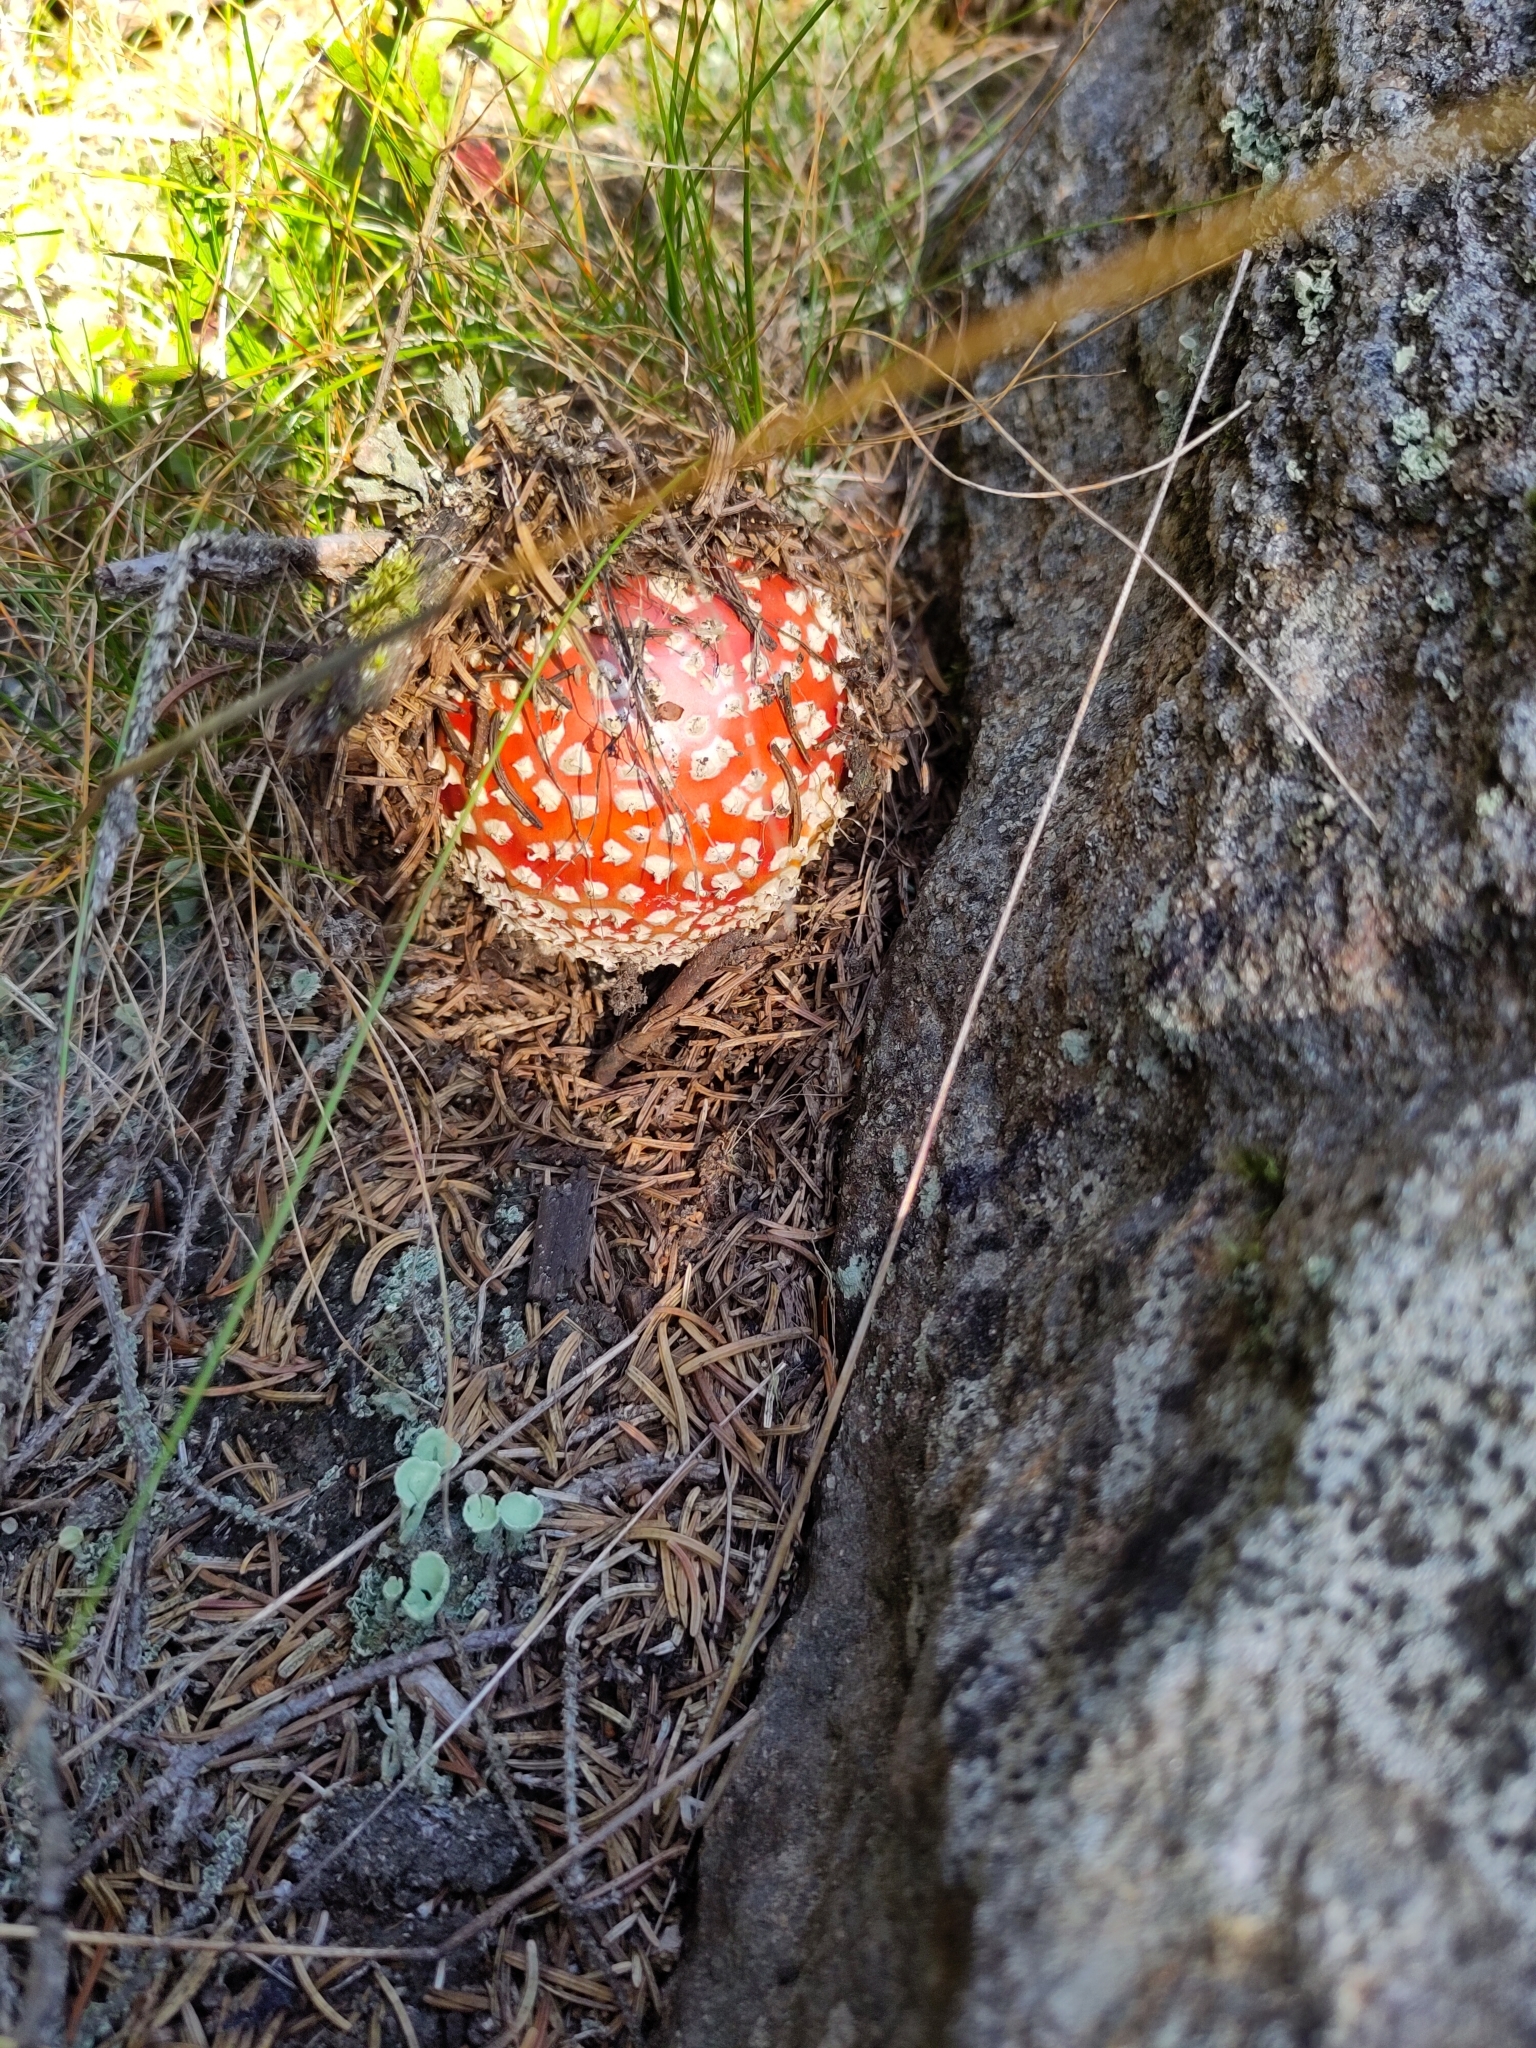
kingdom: Fungi
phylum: Basidiomycota
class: Agaricomycetes
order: Agaricales
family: Amanitaceae
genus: Amanita
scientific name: Amanita muscaria
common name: Fly agaric
